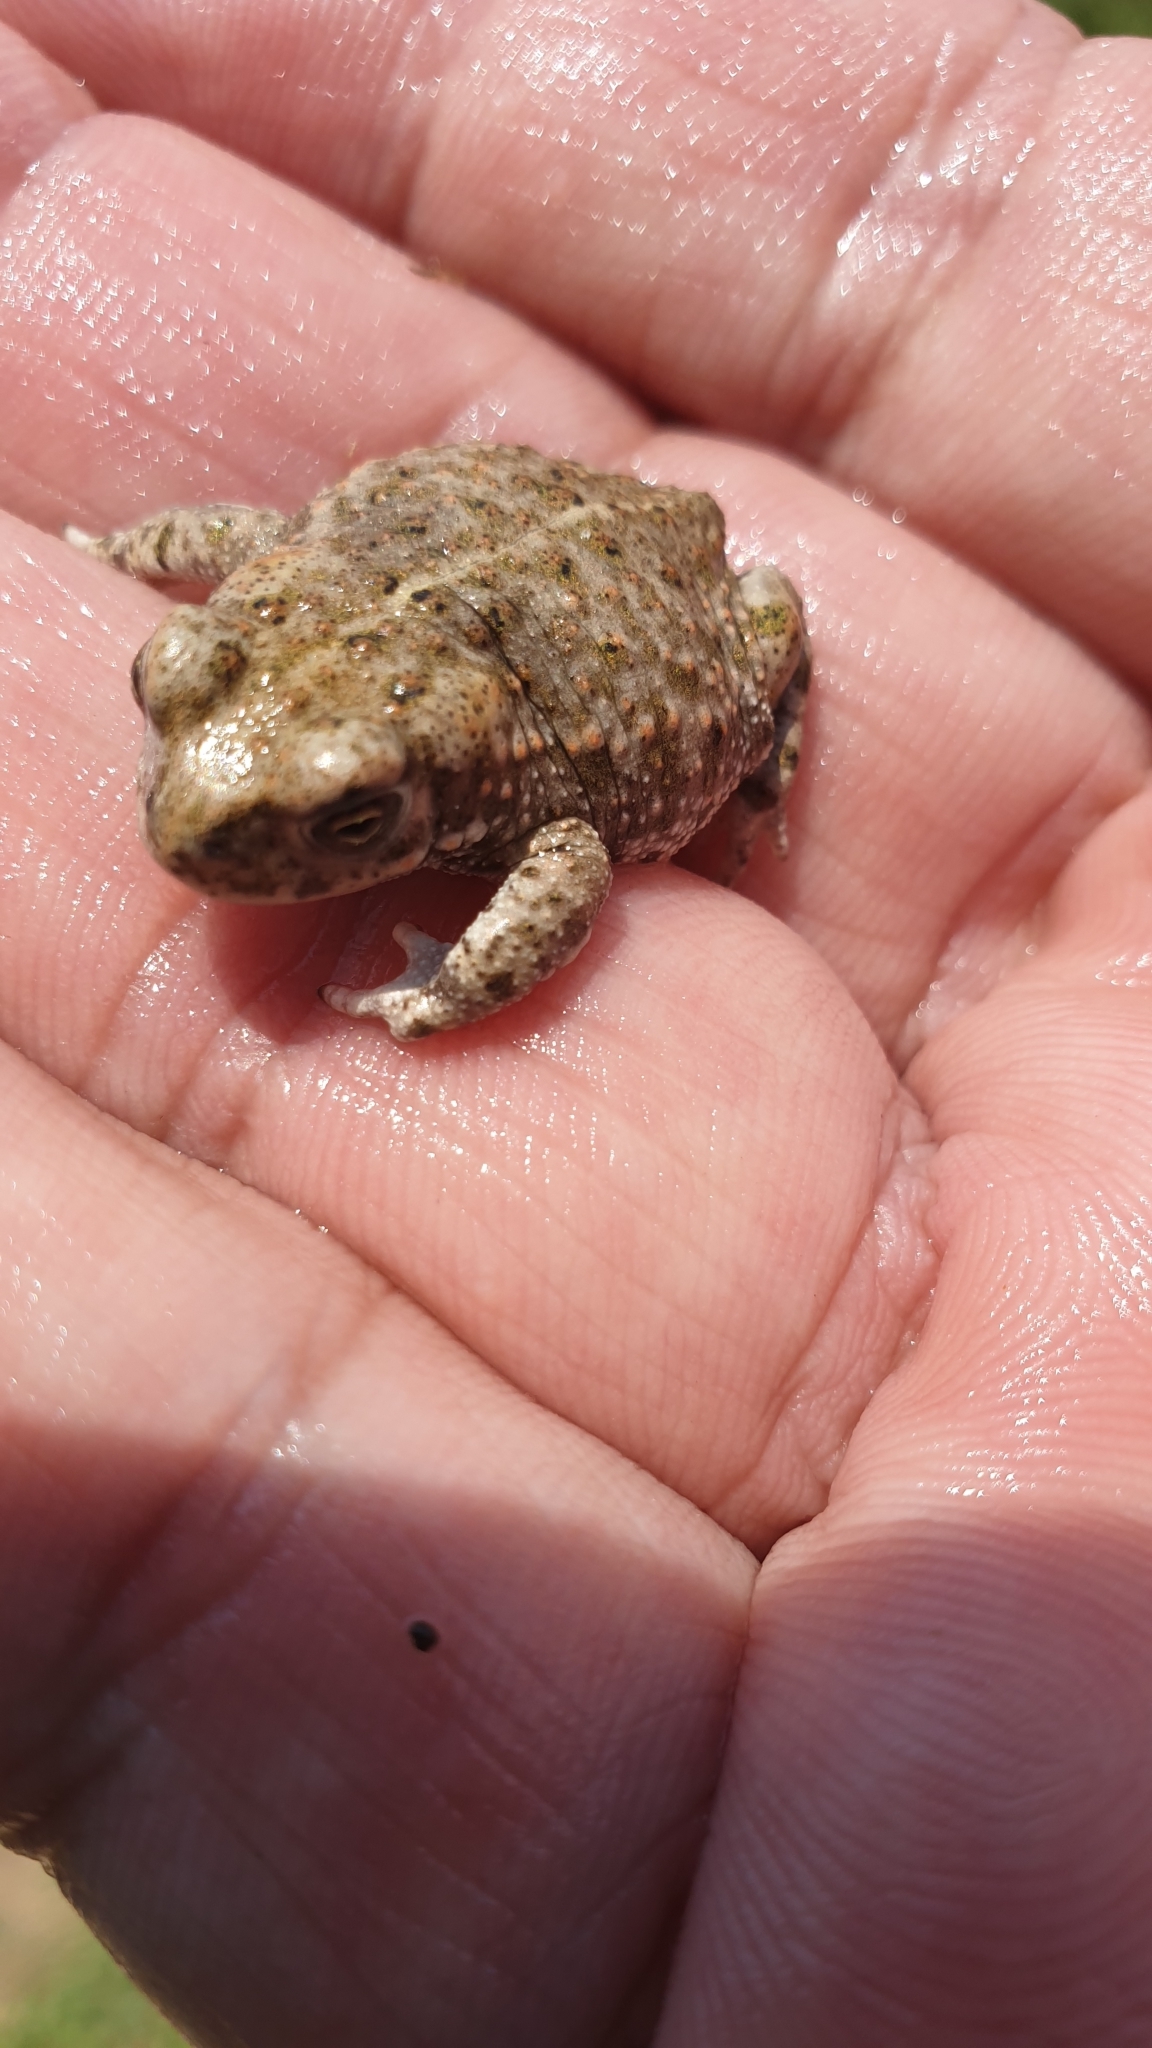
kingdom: Animalia
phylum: Chordata
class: Amphibia
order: Anura
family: Bufonidae
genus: Epidalea
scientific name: Epidalea calamita
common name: Natterjack toad
